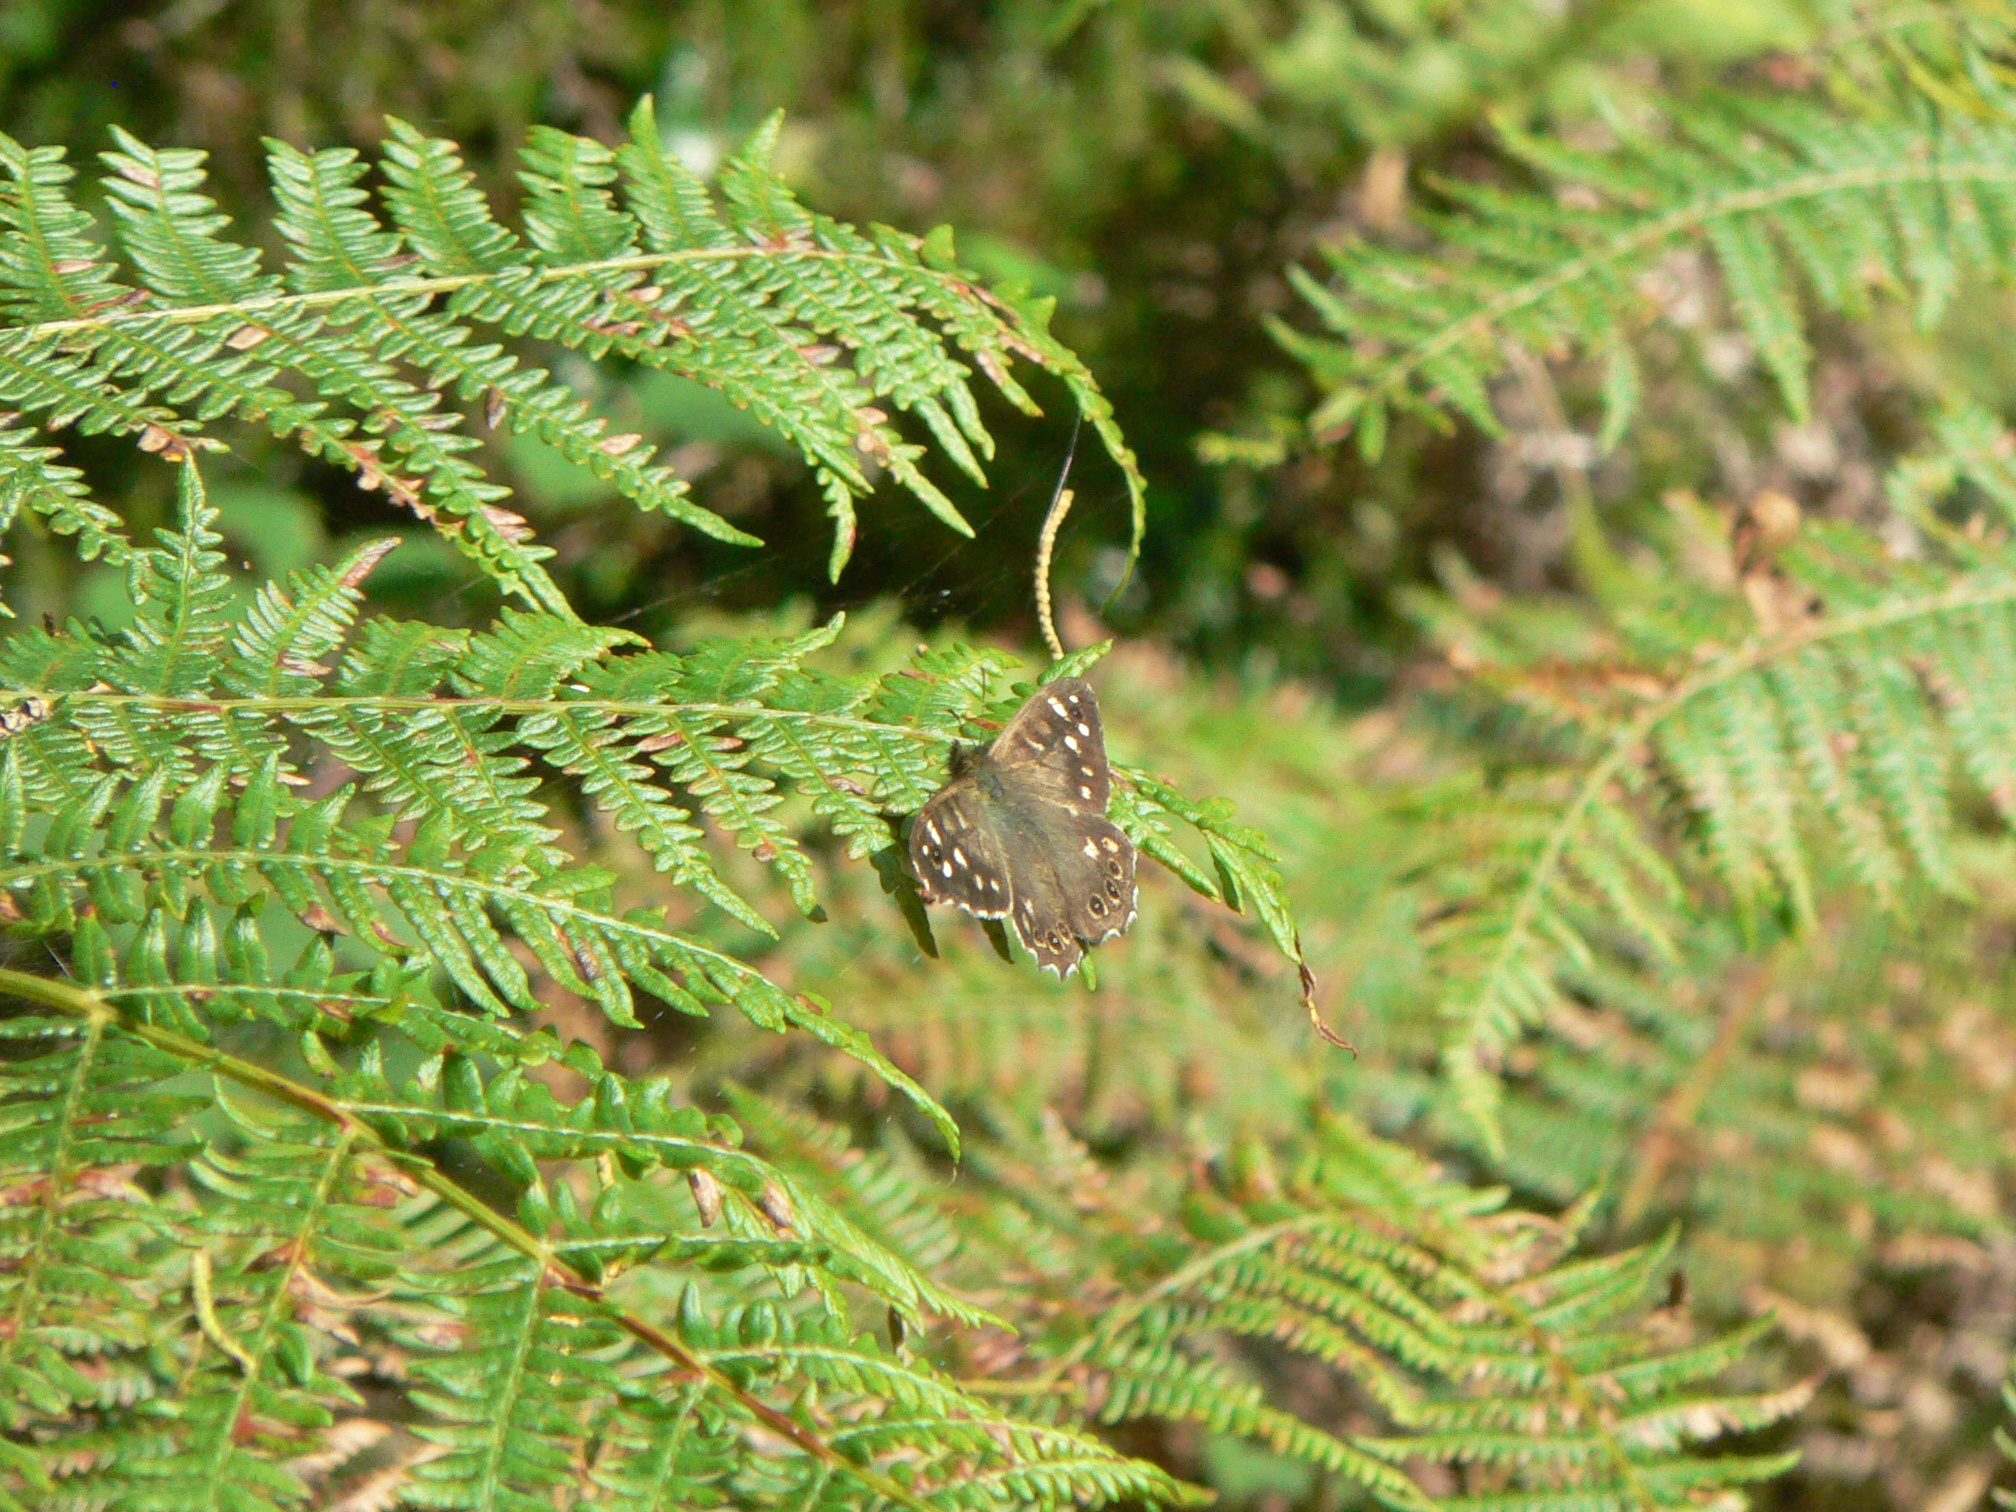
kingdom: Animalia
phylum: Arthropoda
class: Insecta
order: Lepidoptera
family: Nymphalidae
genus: Pararge
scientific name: Pararge aegeria
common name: Speckled wood
